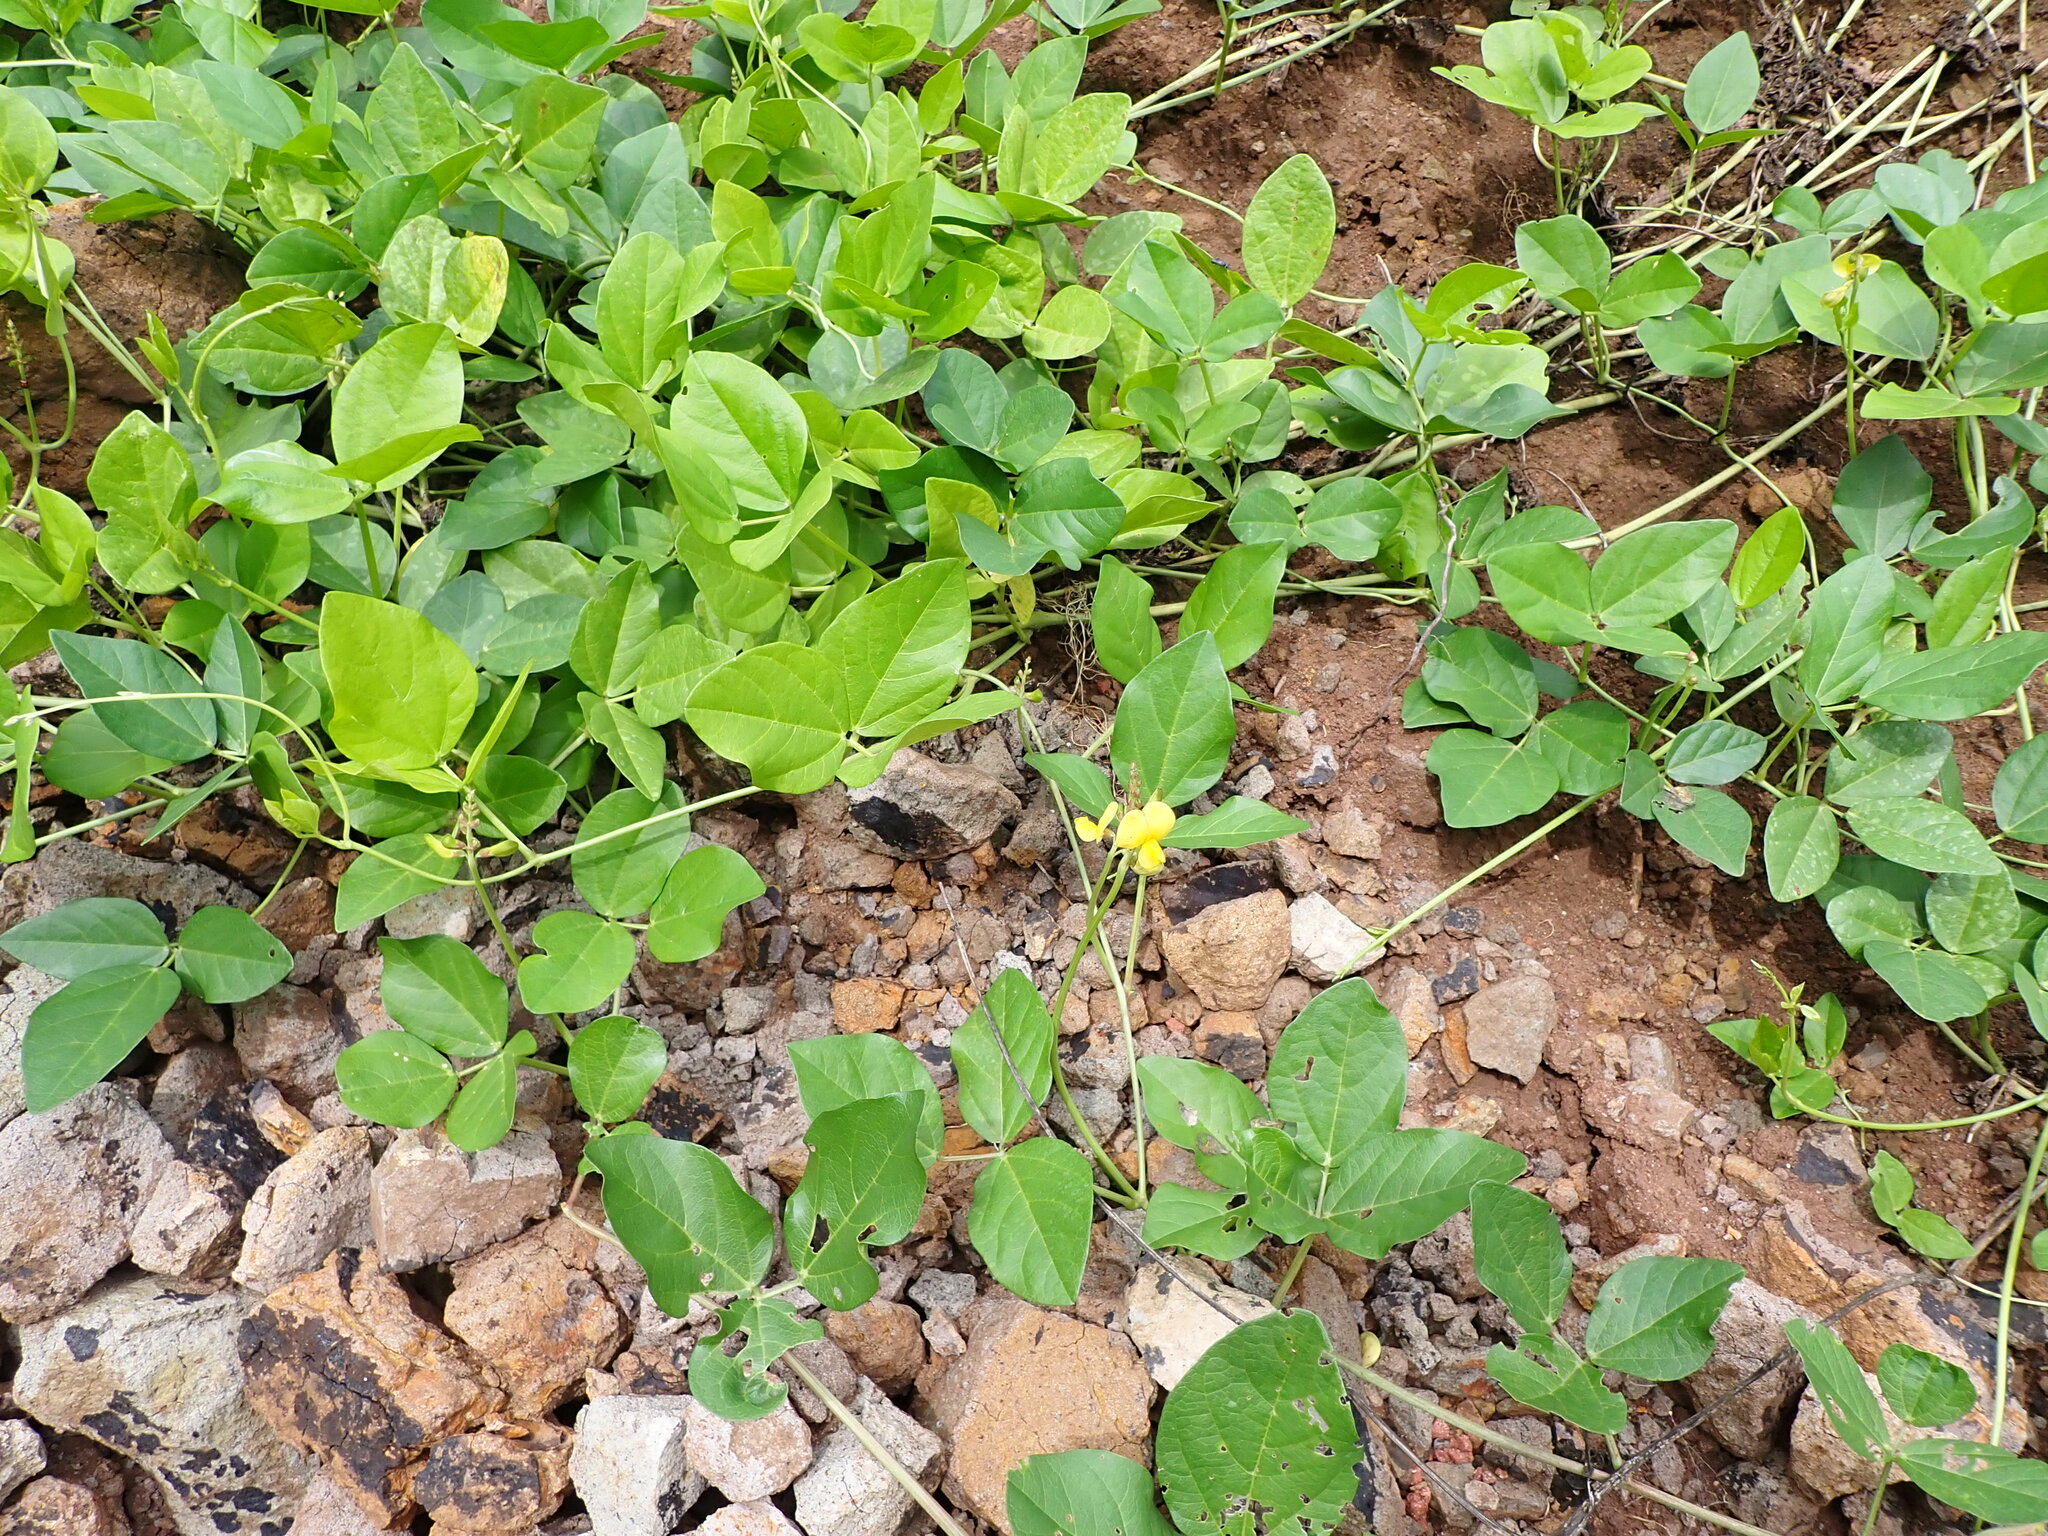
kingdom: Plantae
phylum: Tracheophyta
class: Magnoliopsida
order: Fabales
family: Fabaceae
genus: Vigna
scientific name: Vigna marina
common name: Dune-bean
